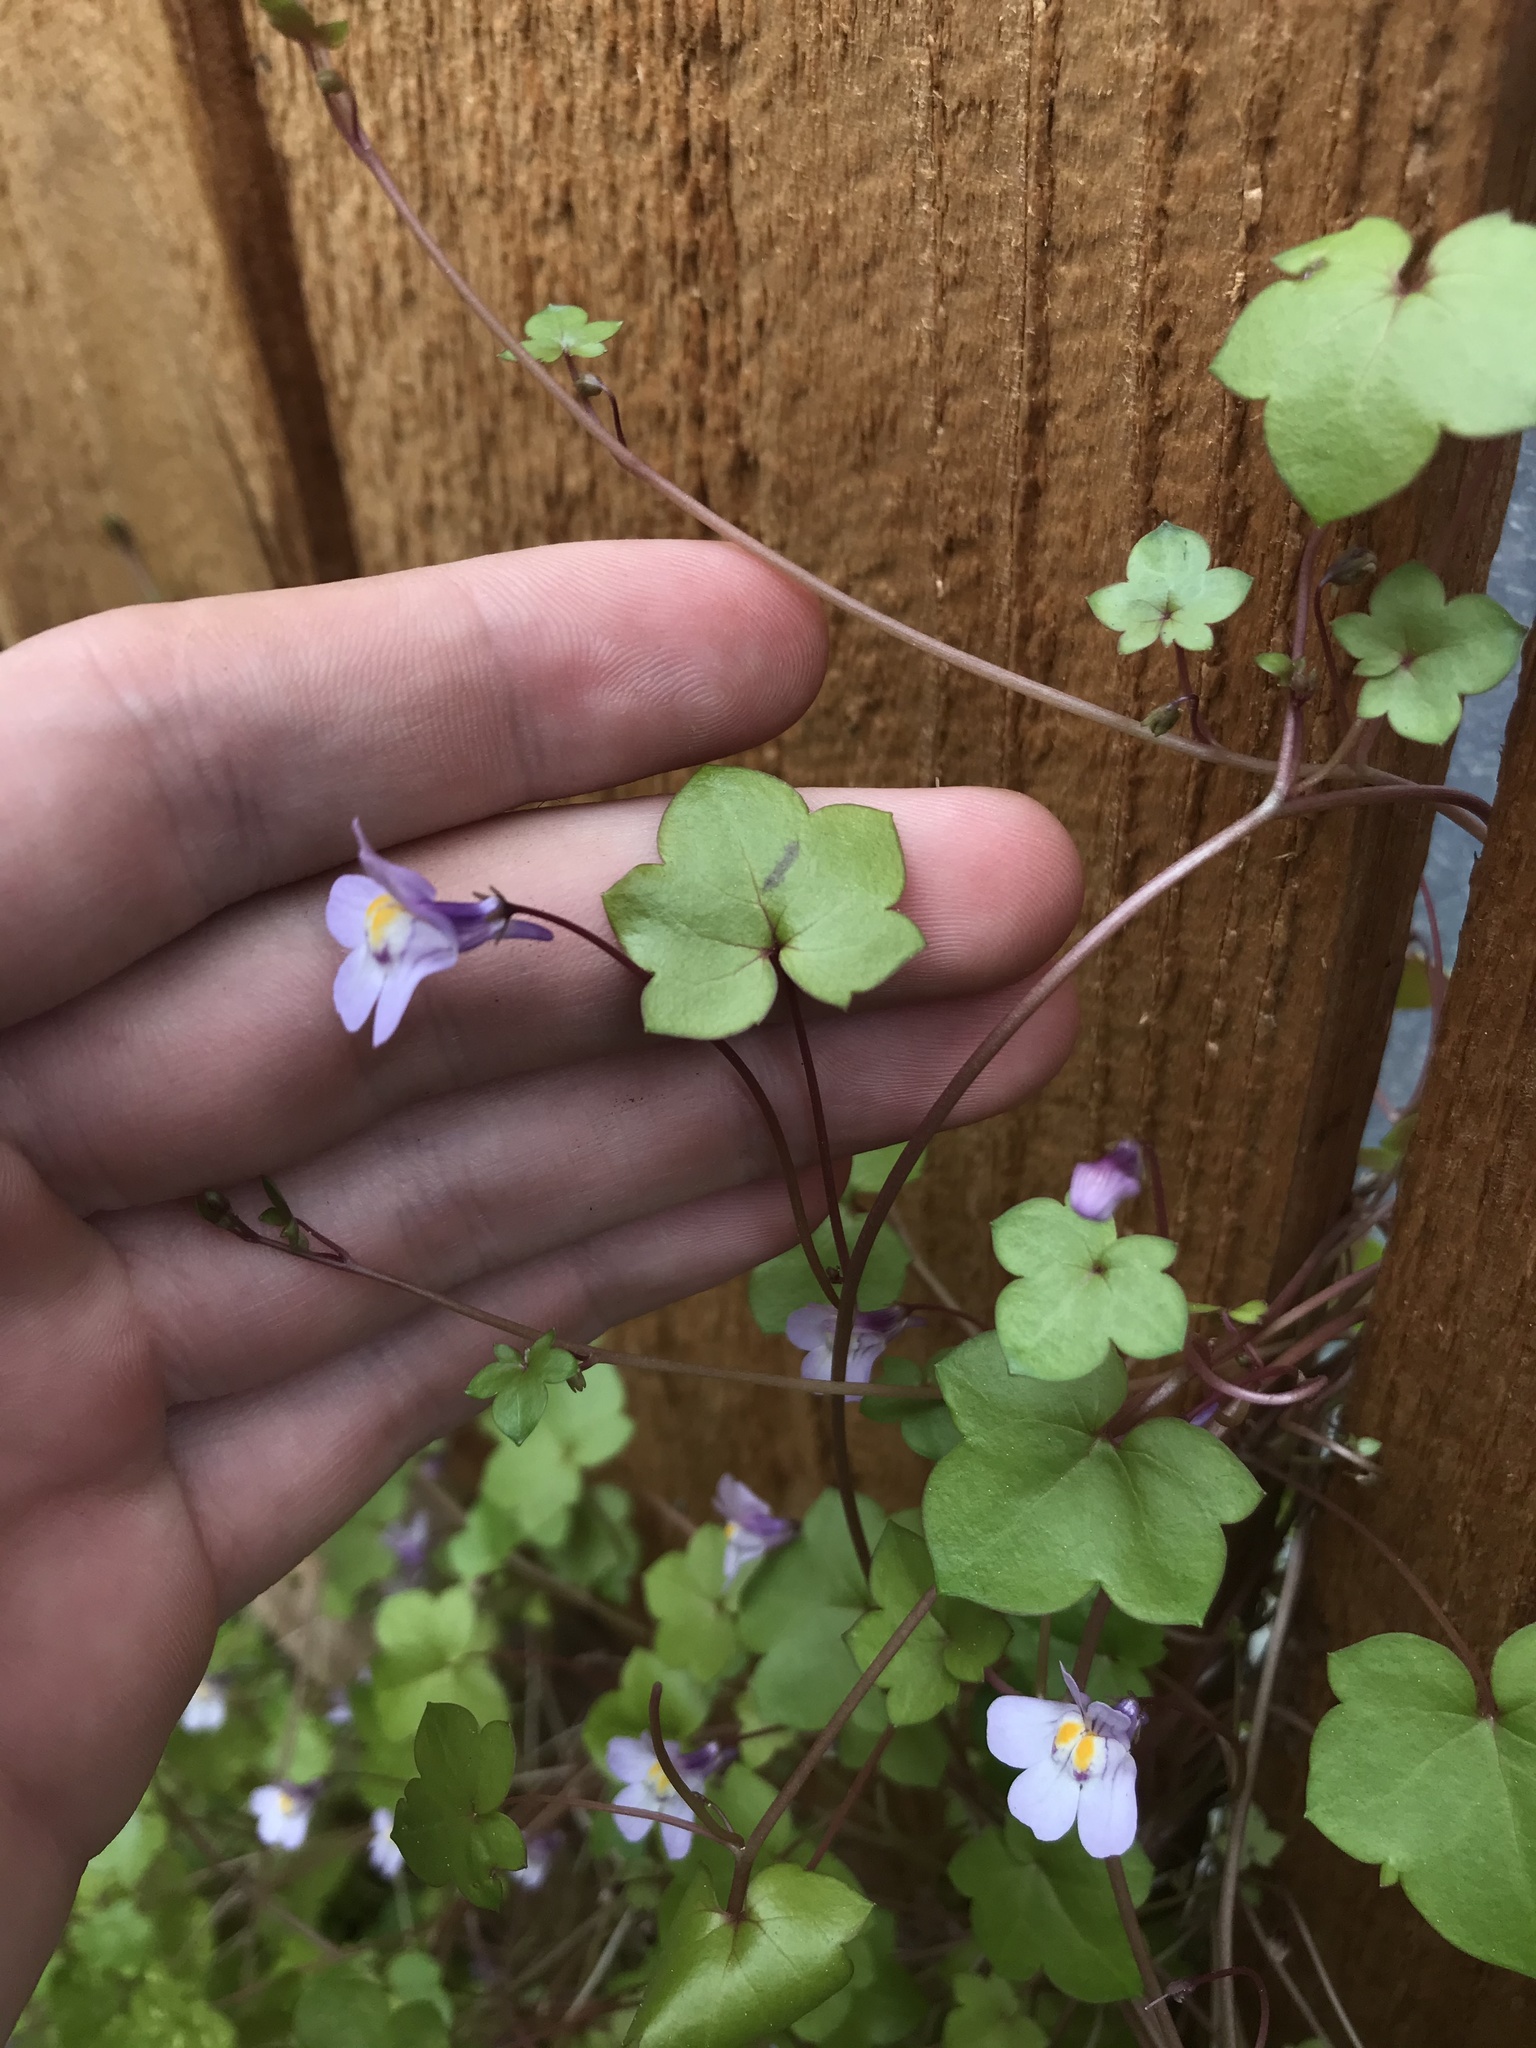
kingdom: Plantae
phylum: Tracheophyta
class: Magnoliopsida
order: Lamiales
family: Plantaginaceae
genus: Cymbalaria
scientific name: Cymbalaria muralis
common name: Ivy-leaved toadflax
